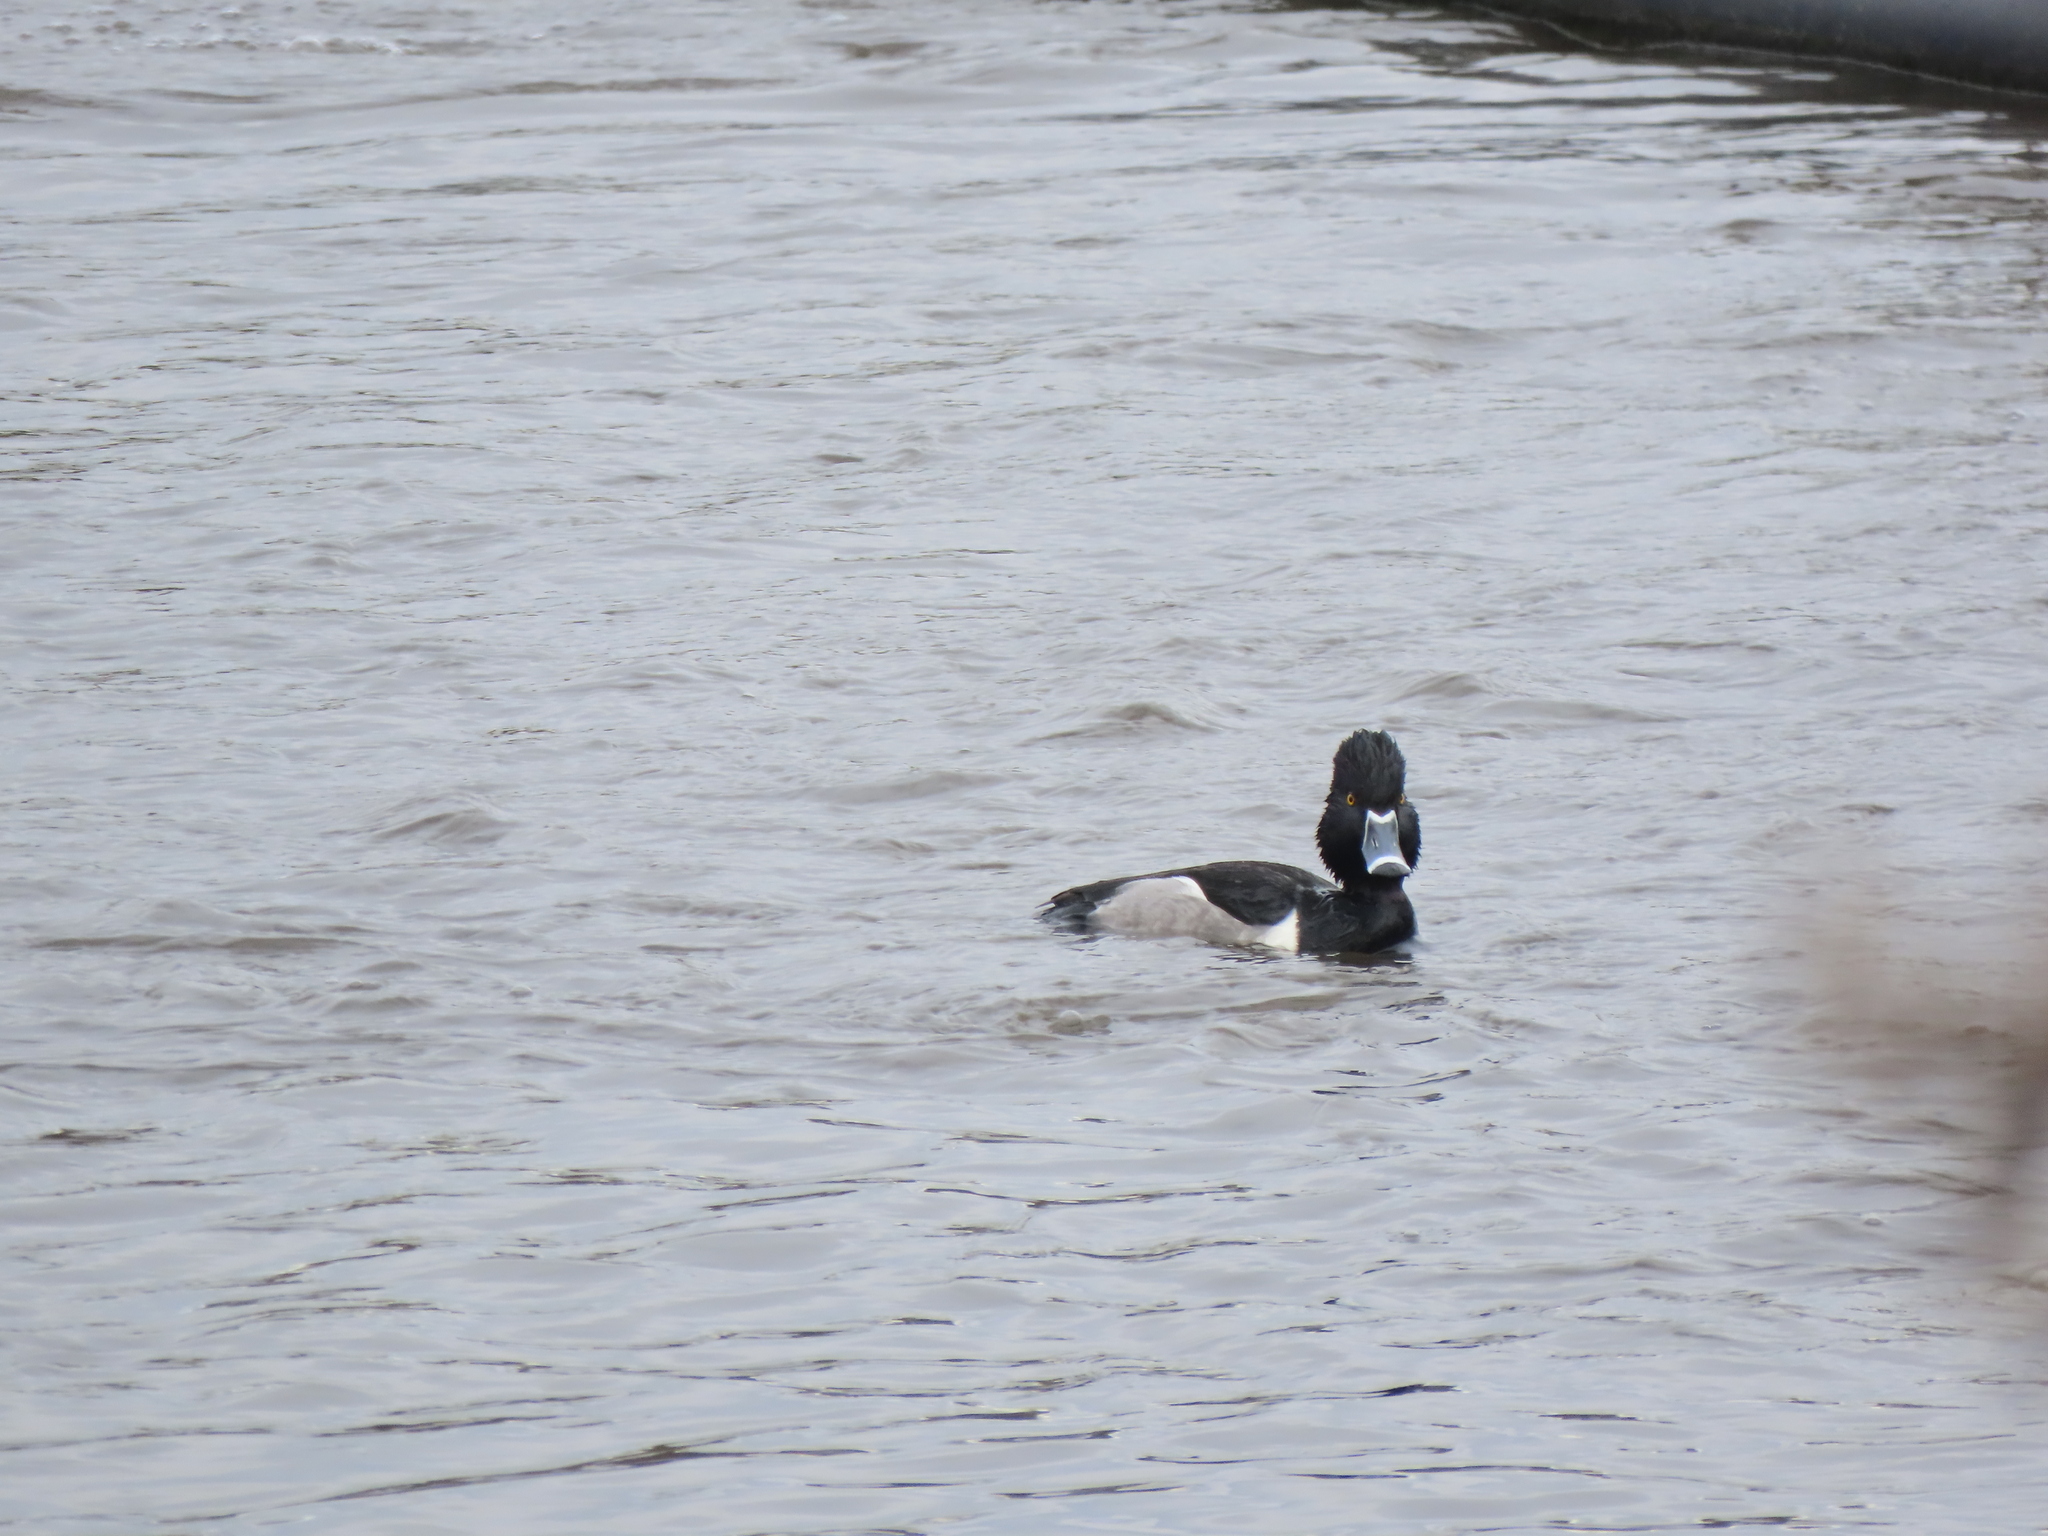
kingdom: Animalia
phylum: Chordata
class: Aves
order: Anseriformes
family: Anatidae
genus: Aythya
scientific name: Aythya collaris
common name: Ring-necked duck
